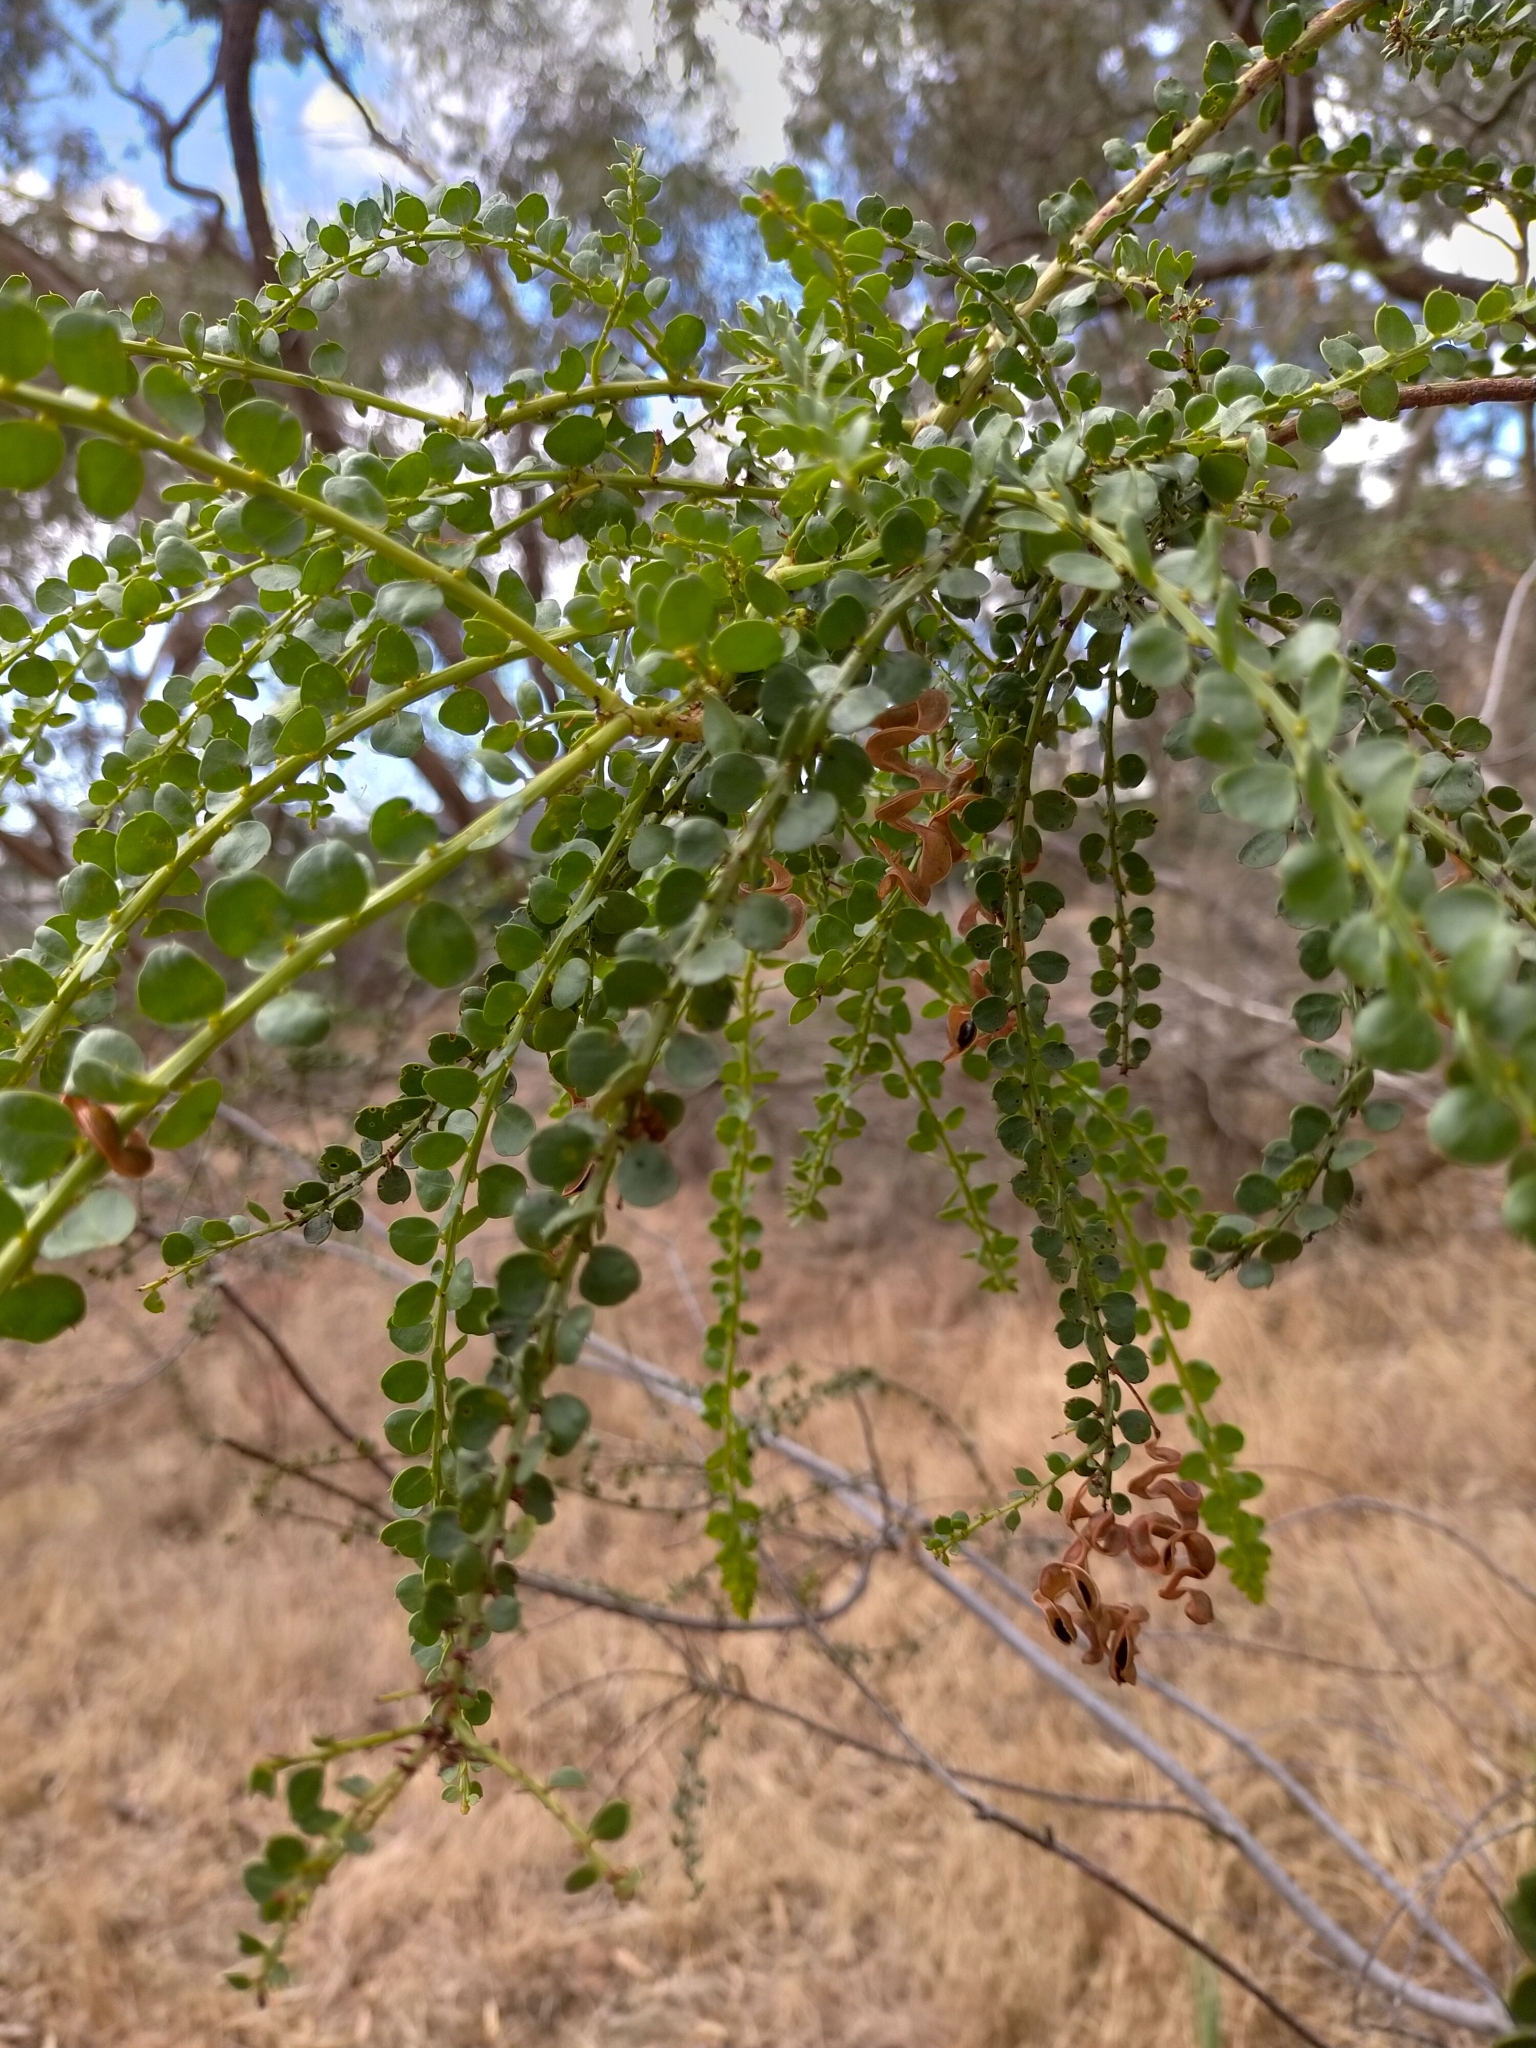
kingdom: Plantae
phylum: Tracheophyta
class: Magnoliopsida
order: Fabales
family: Fabaceae
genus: Acacia
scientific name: Acacia acinacea
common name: Gold-dust acacia
